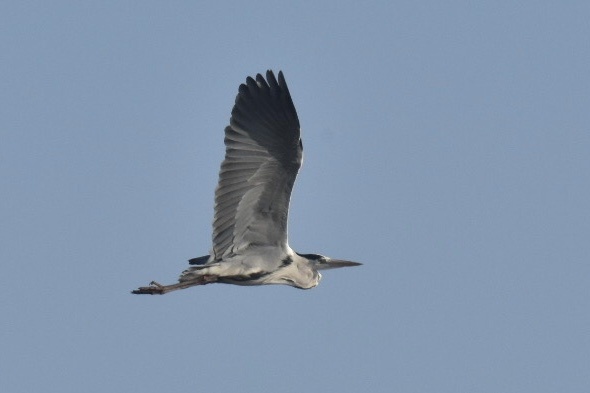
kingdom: Animalia
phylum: Chordata
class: Aves
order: Pelecaniformes
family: Ardeidae
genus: Ardea
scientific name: Ardea cinerea
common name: Grey heron
